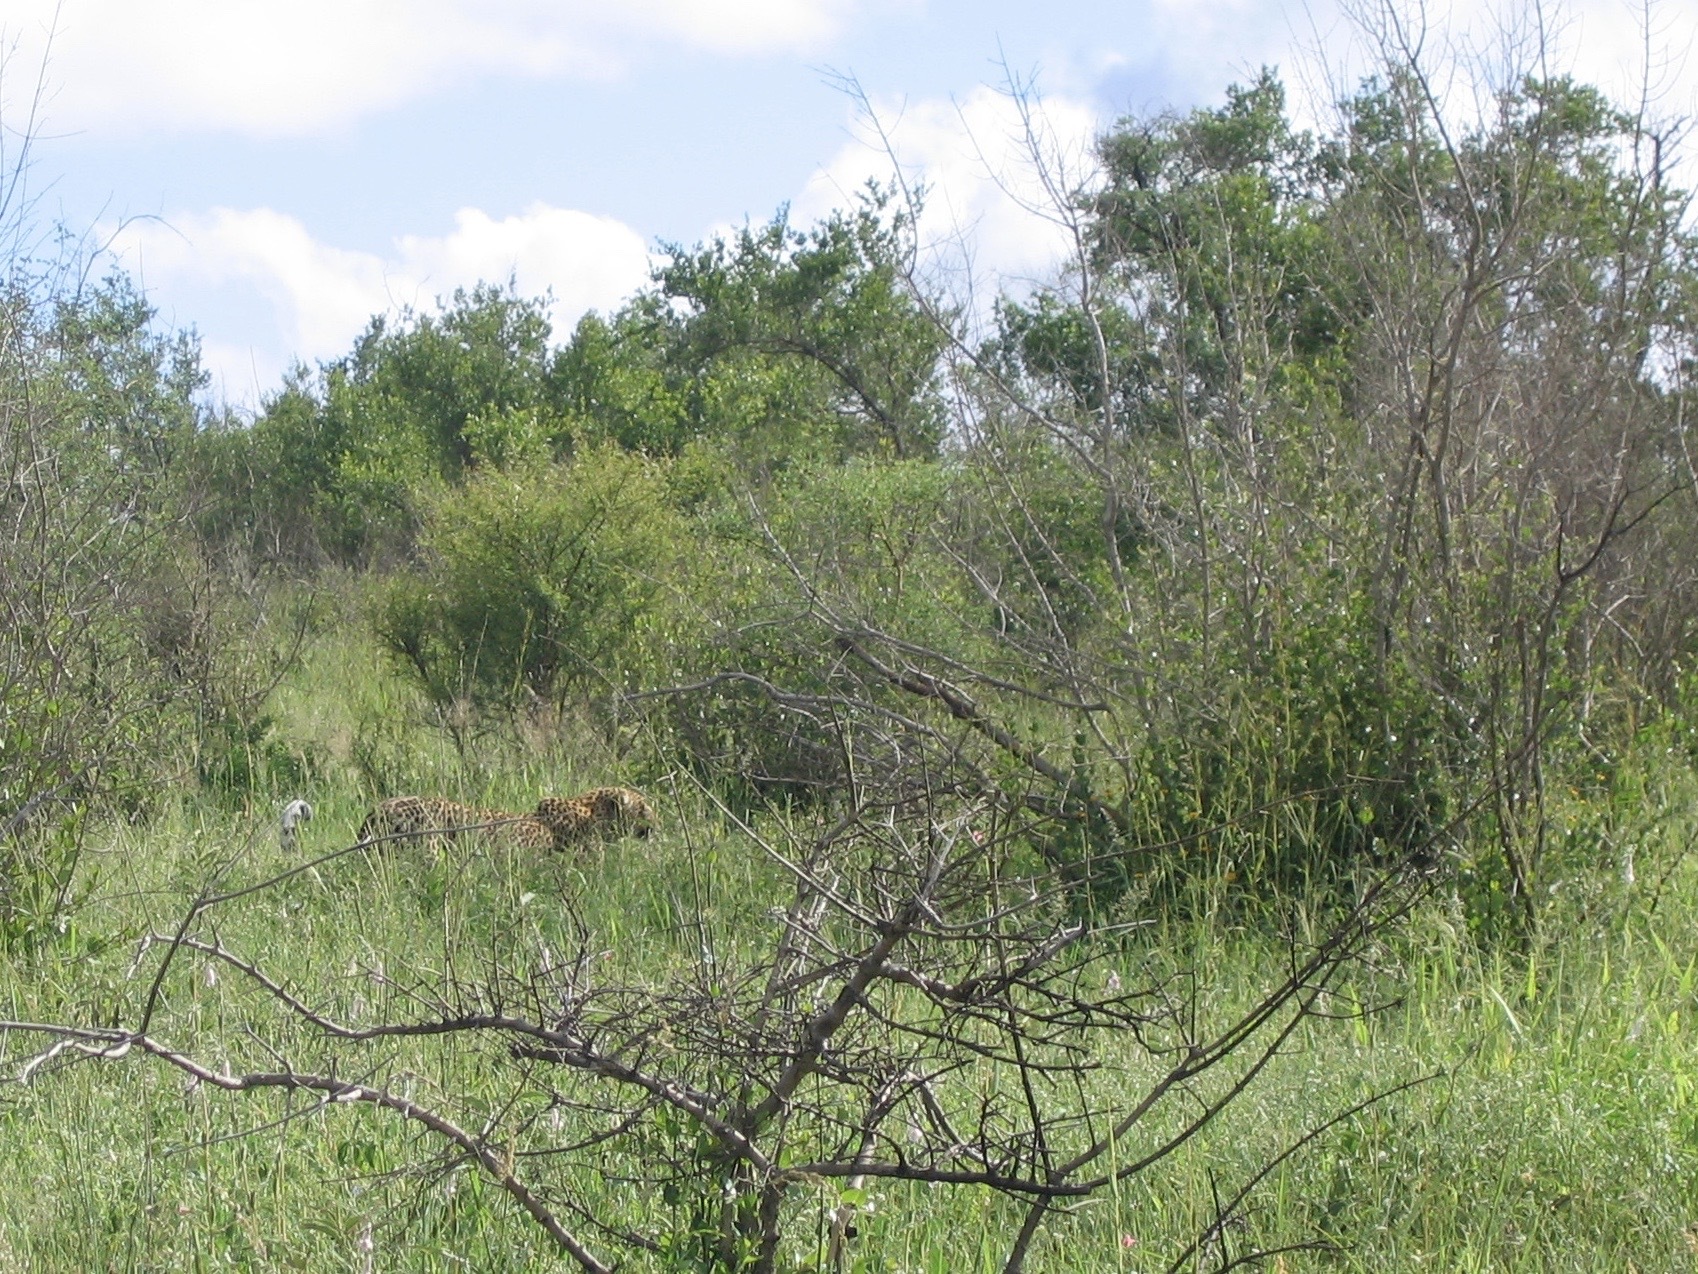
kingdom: Animalia
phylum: Chordata
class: Mammalia
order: Carnivora
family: Felidae
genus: Panthera
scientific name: Panthera pardus
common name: Leopard
